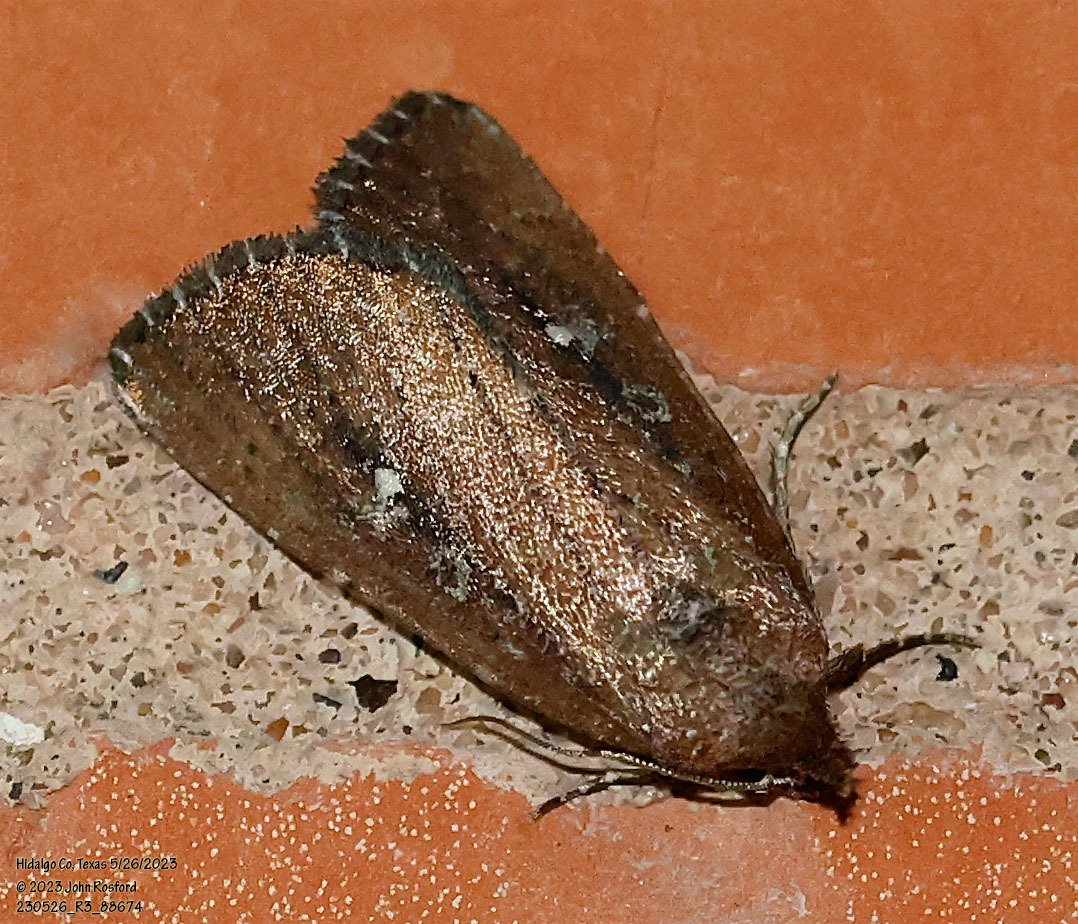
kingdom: Animalia
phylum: Arthropoda
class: Insecta
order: Lepidoptera
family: Noctuidae
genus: Condica
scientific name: Condica videns
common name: White-dotted groundling
